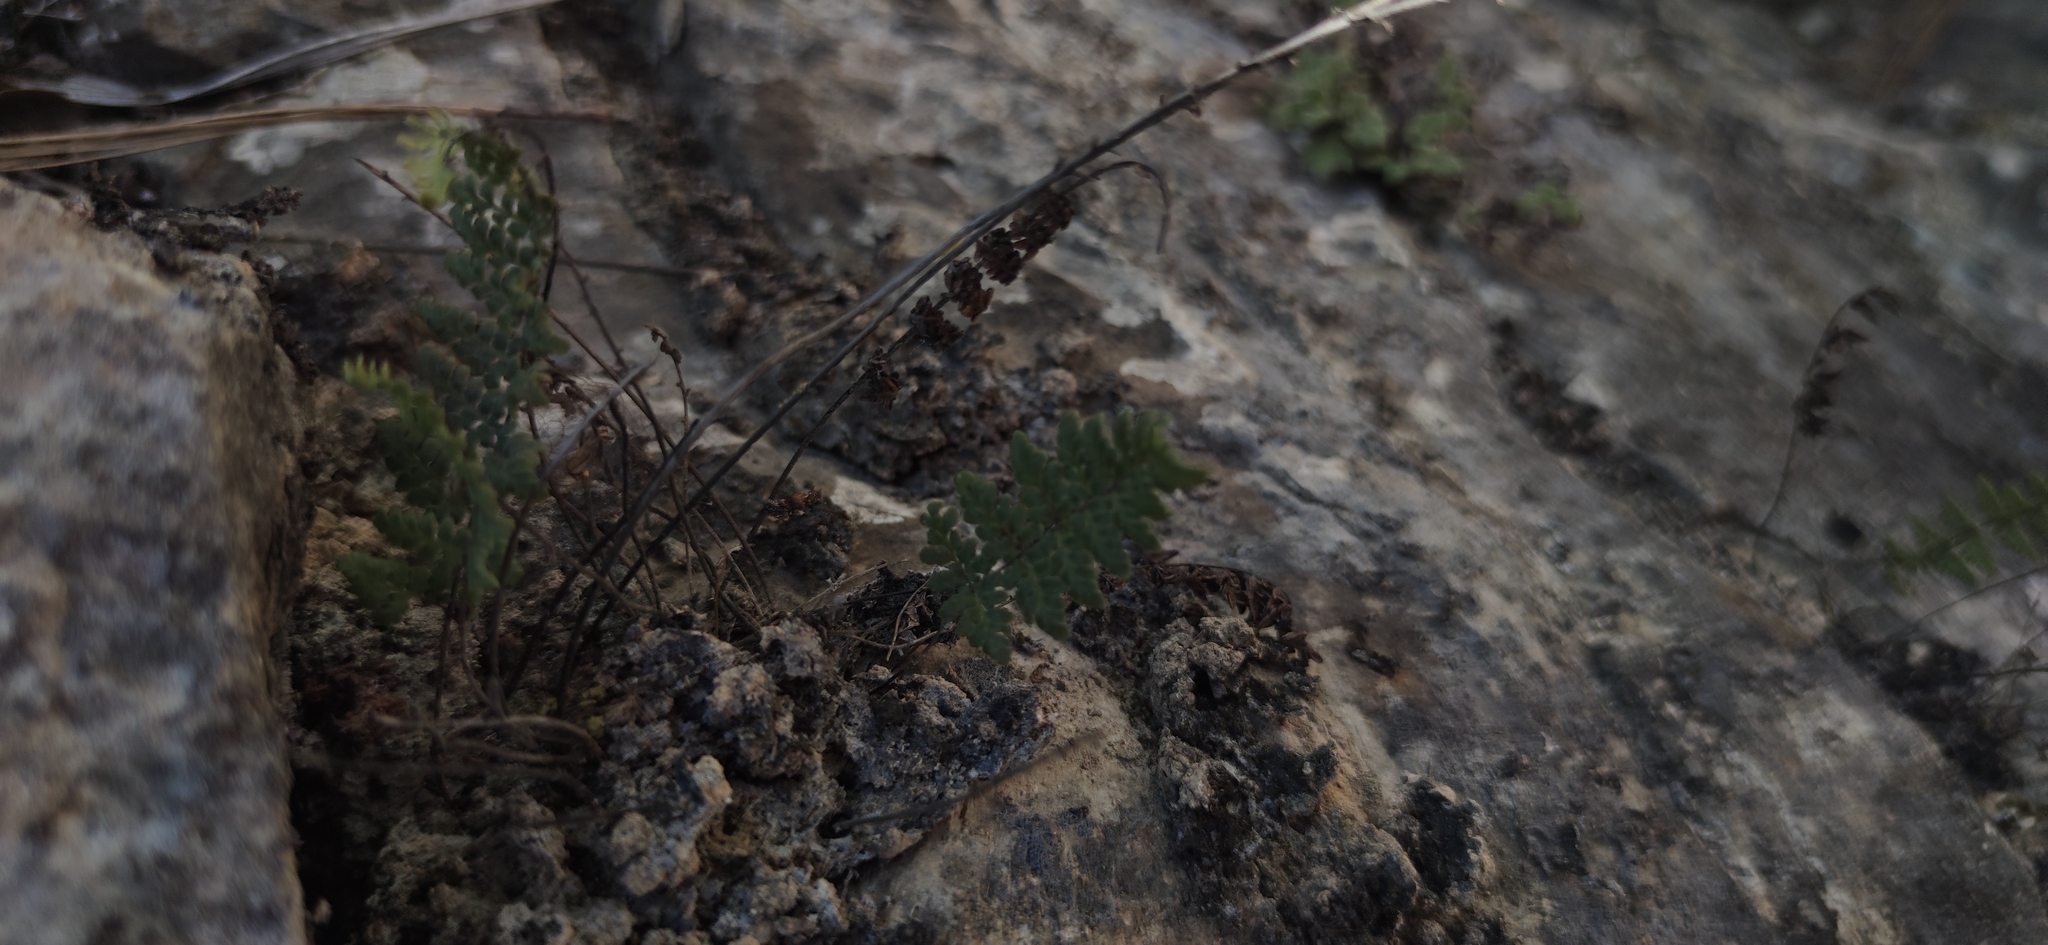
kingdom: Plantae
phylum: Tracheophyta
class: Polypodiopsida
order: Polypodiales
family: Pteridaceae
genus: Myriopteris
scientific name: Myriopteris rufa
